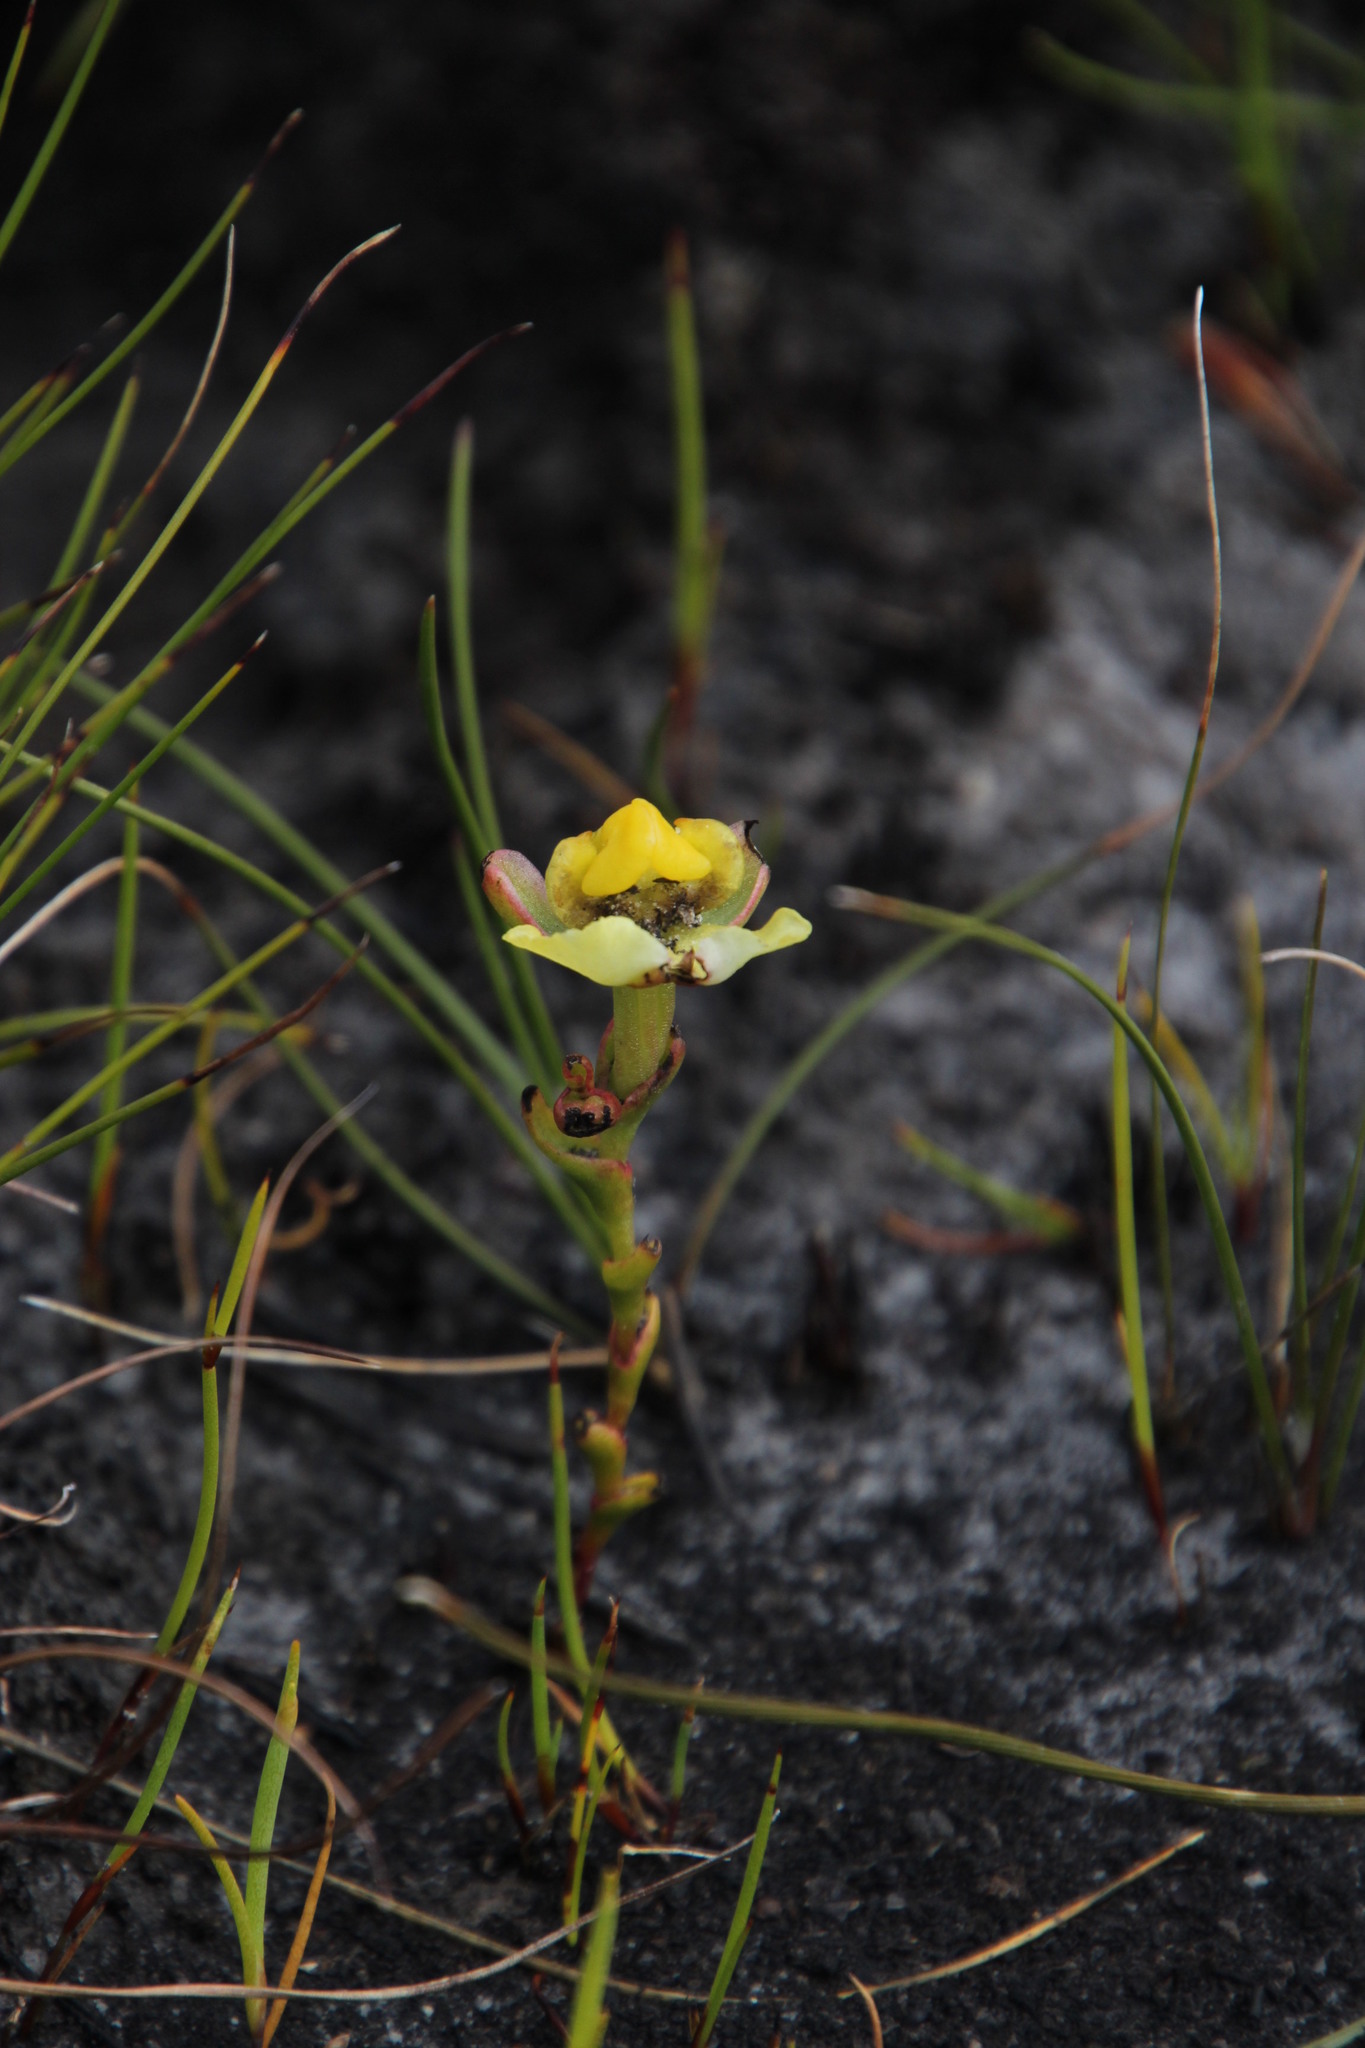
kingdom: Plantae
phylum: Tracheophyta
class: Liliopsida
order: Asparagales
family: Orchidaceae
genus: Ceratandra
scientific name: Ceratandra harveyana
